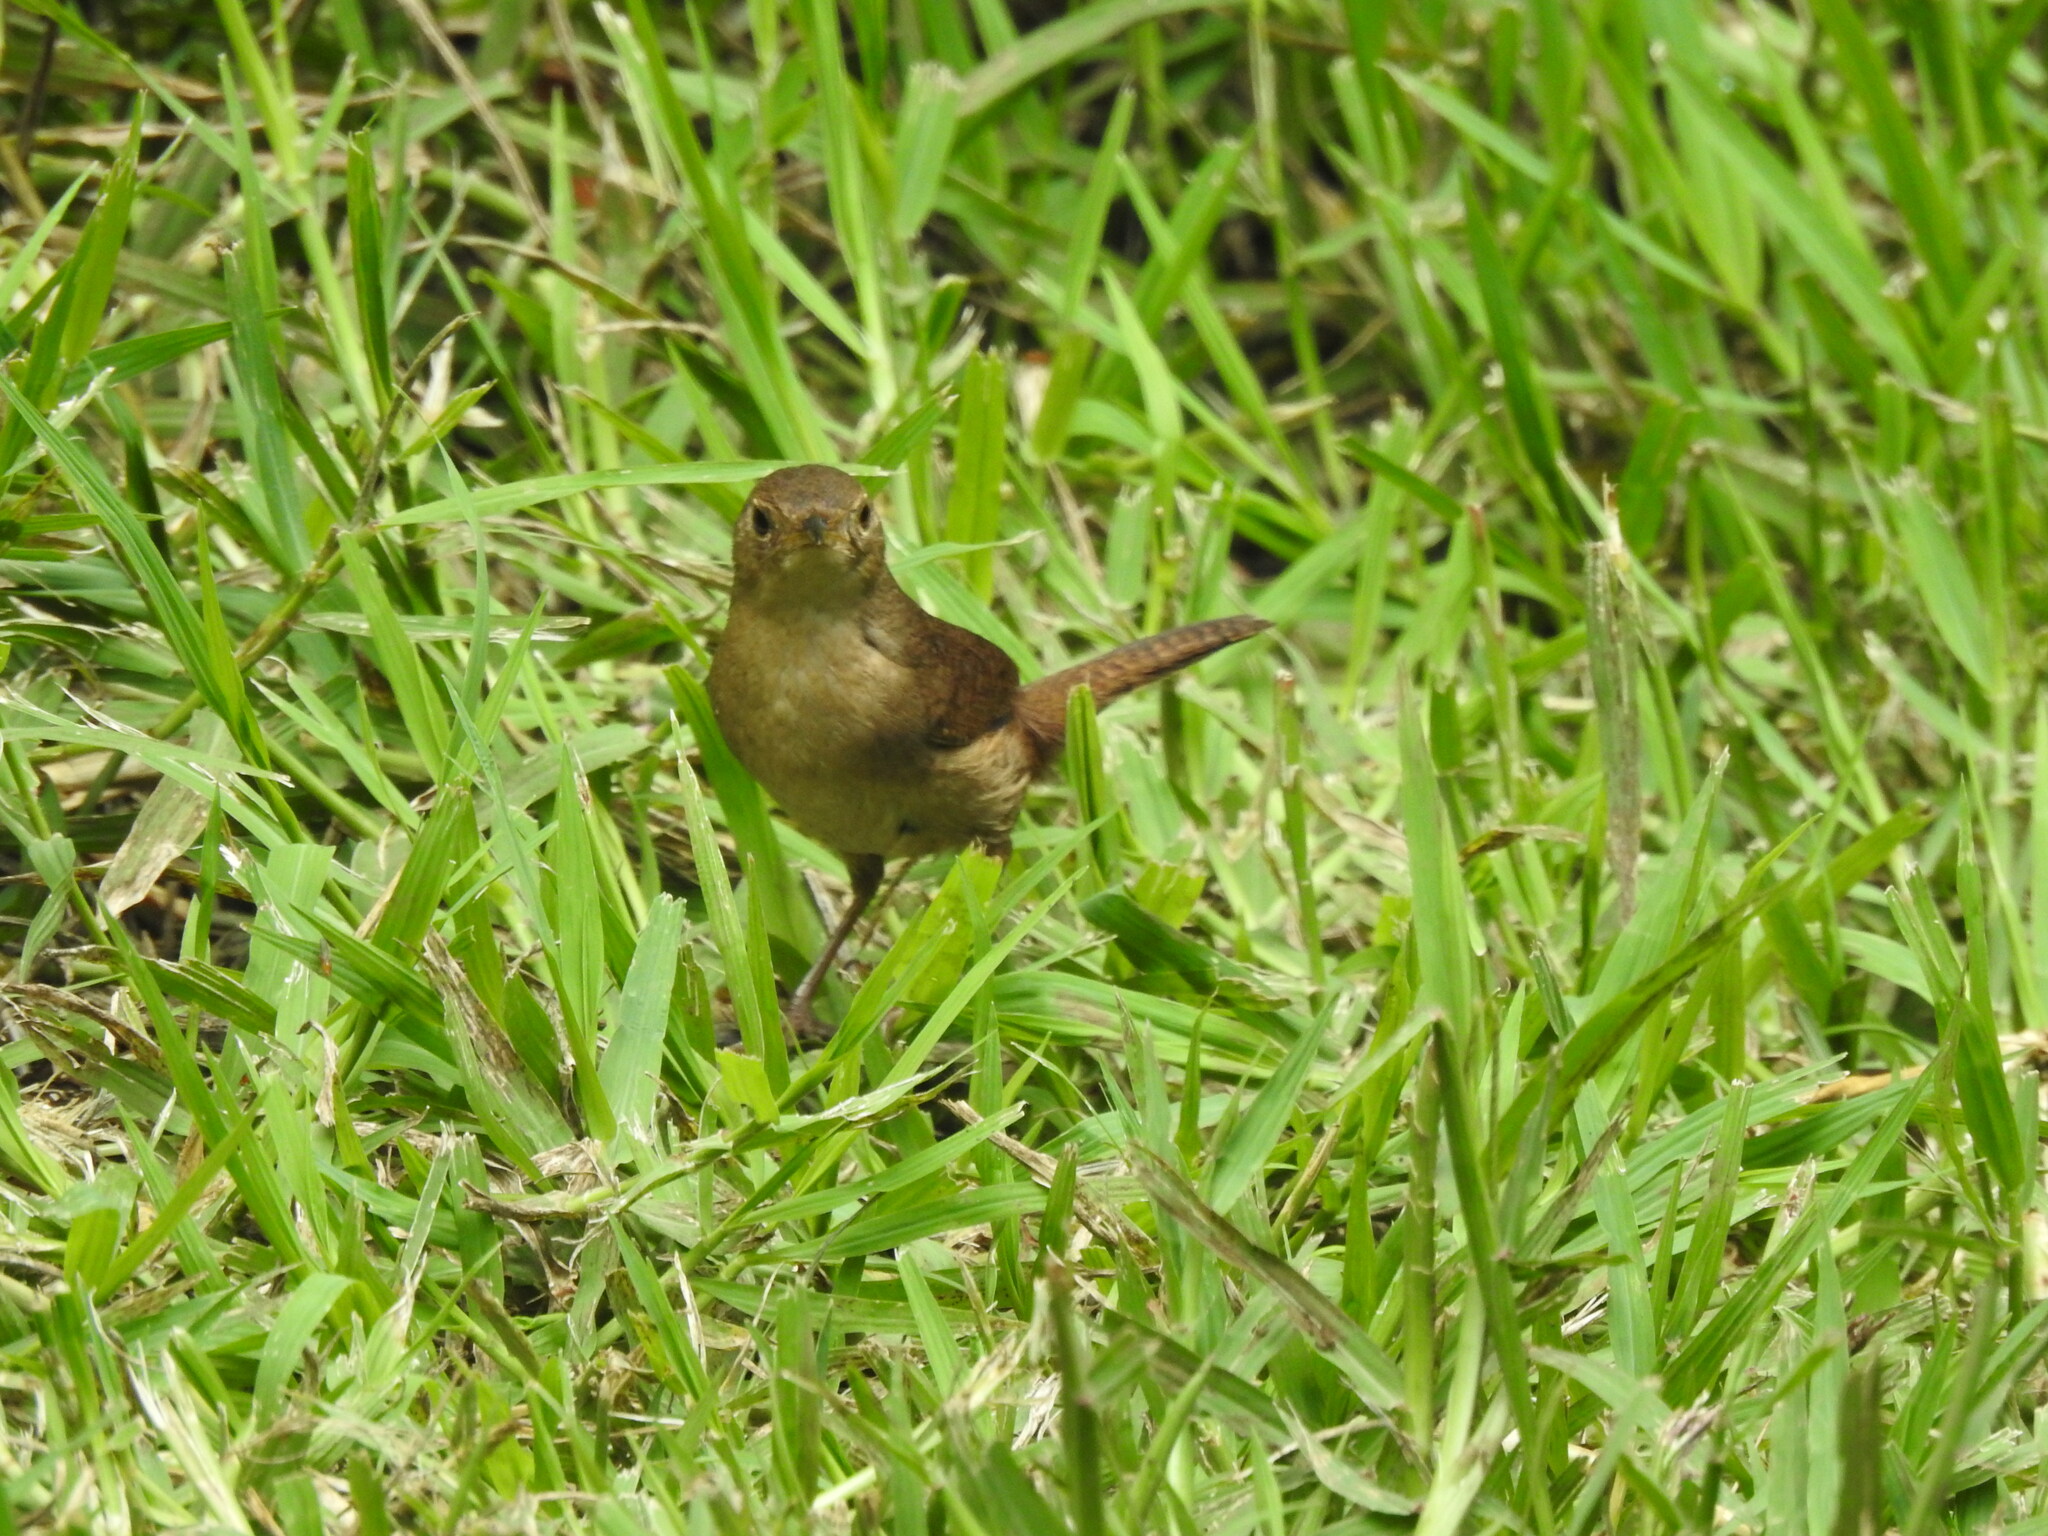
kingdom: Animalia
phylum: Chordata
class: Aves
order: Passeriformes
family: Troglodytidae
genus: Troglodytes
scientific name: Troglodytes aedon
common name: House wren
